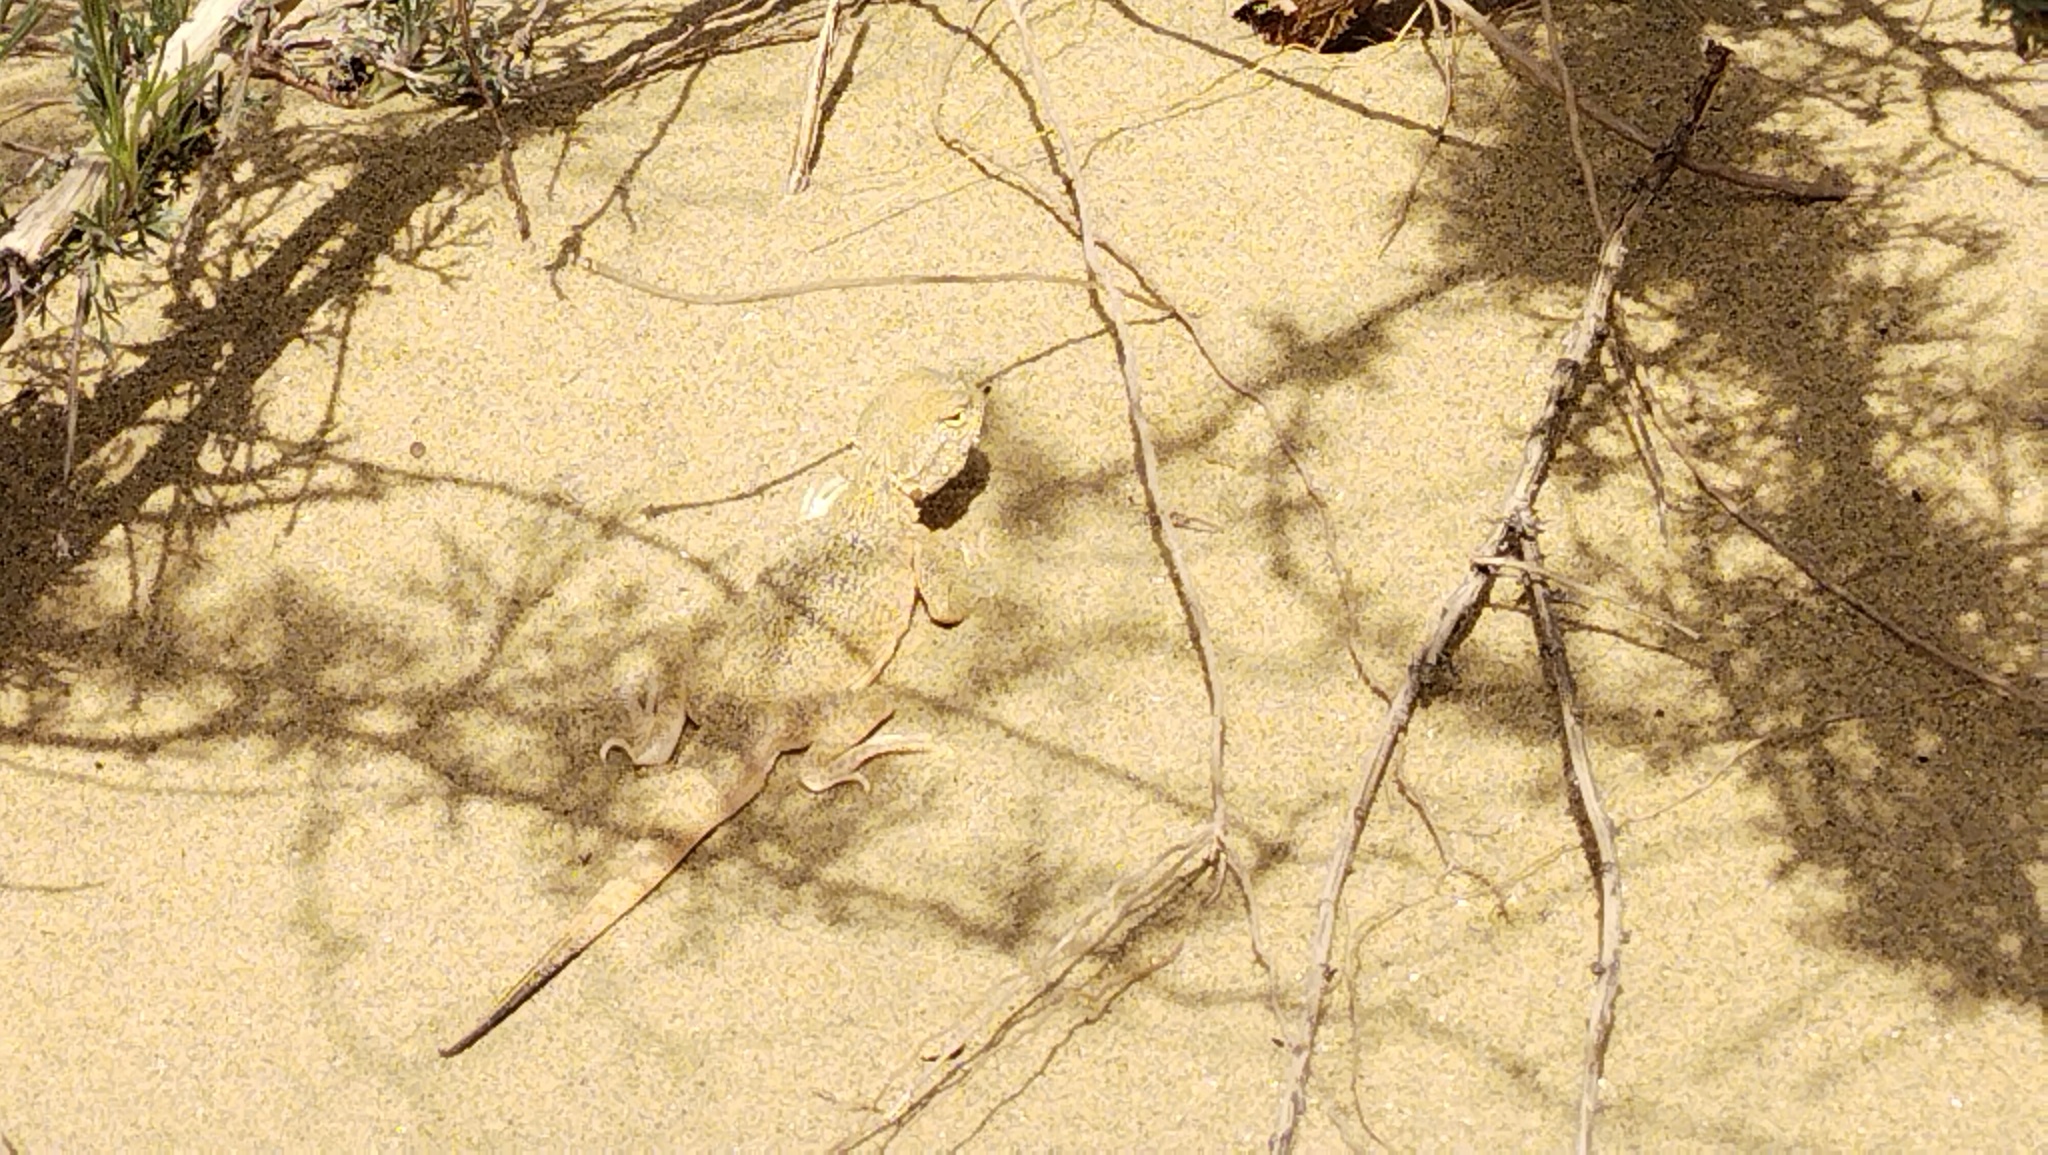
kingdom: Animalia
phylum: Chordata
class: Squamata
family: Agamidae
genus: Phrynocephalus
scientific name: Phrynocephalus mystaceus
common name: Secret toadhead agama
